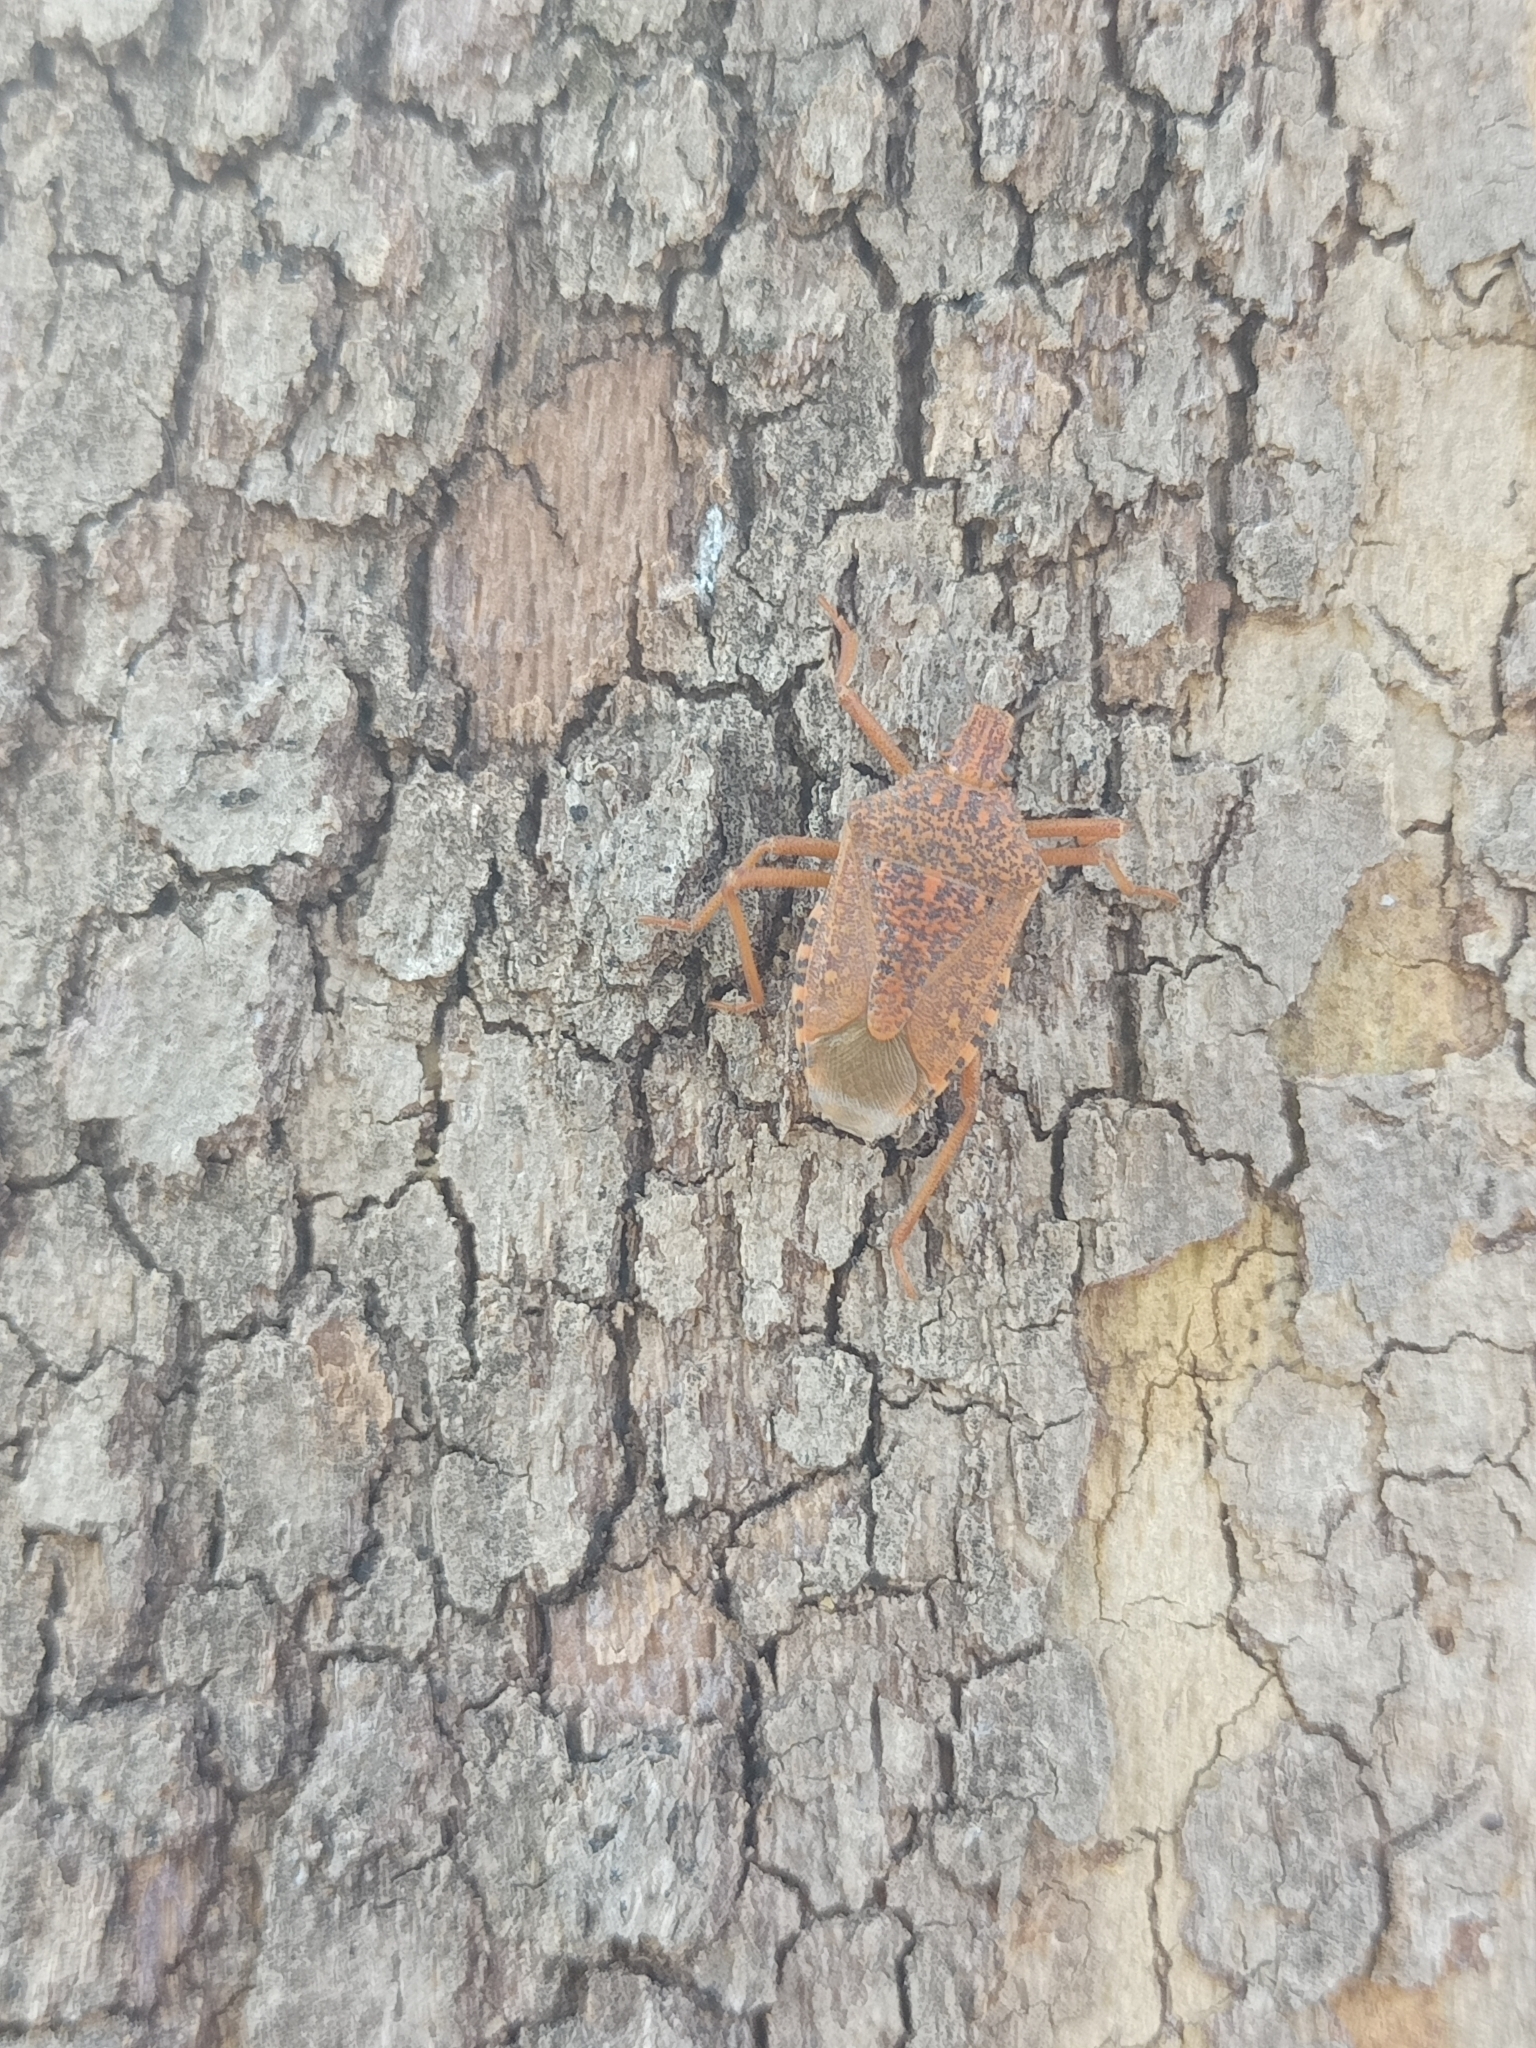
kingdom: Animalia
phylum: Arthropoda
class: Insecta
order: Hemiptera
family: Pentatomidae
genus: Apodiphus
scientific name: Apodiphus
